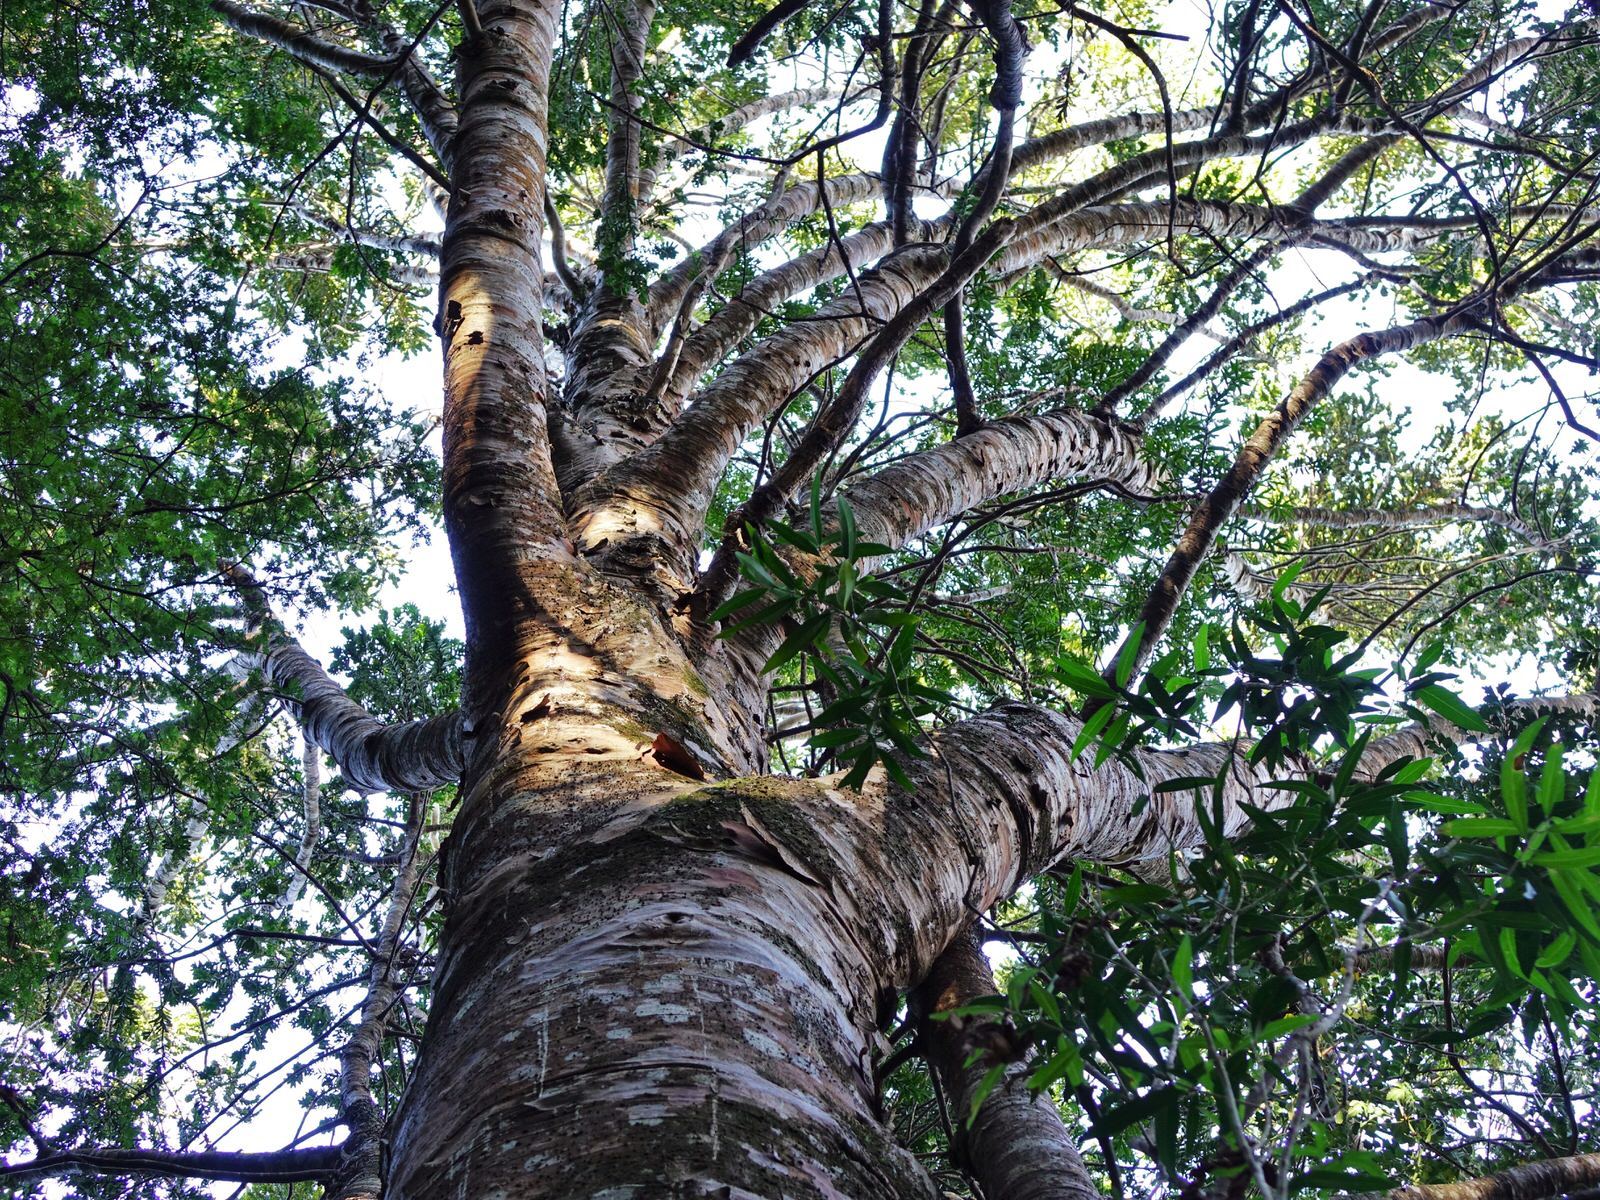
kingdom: Plantae
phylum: Tracheophyta
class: Pinopsida
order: Pinales
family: Araucariaceae
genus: Agathis
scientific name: Agathis australis
